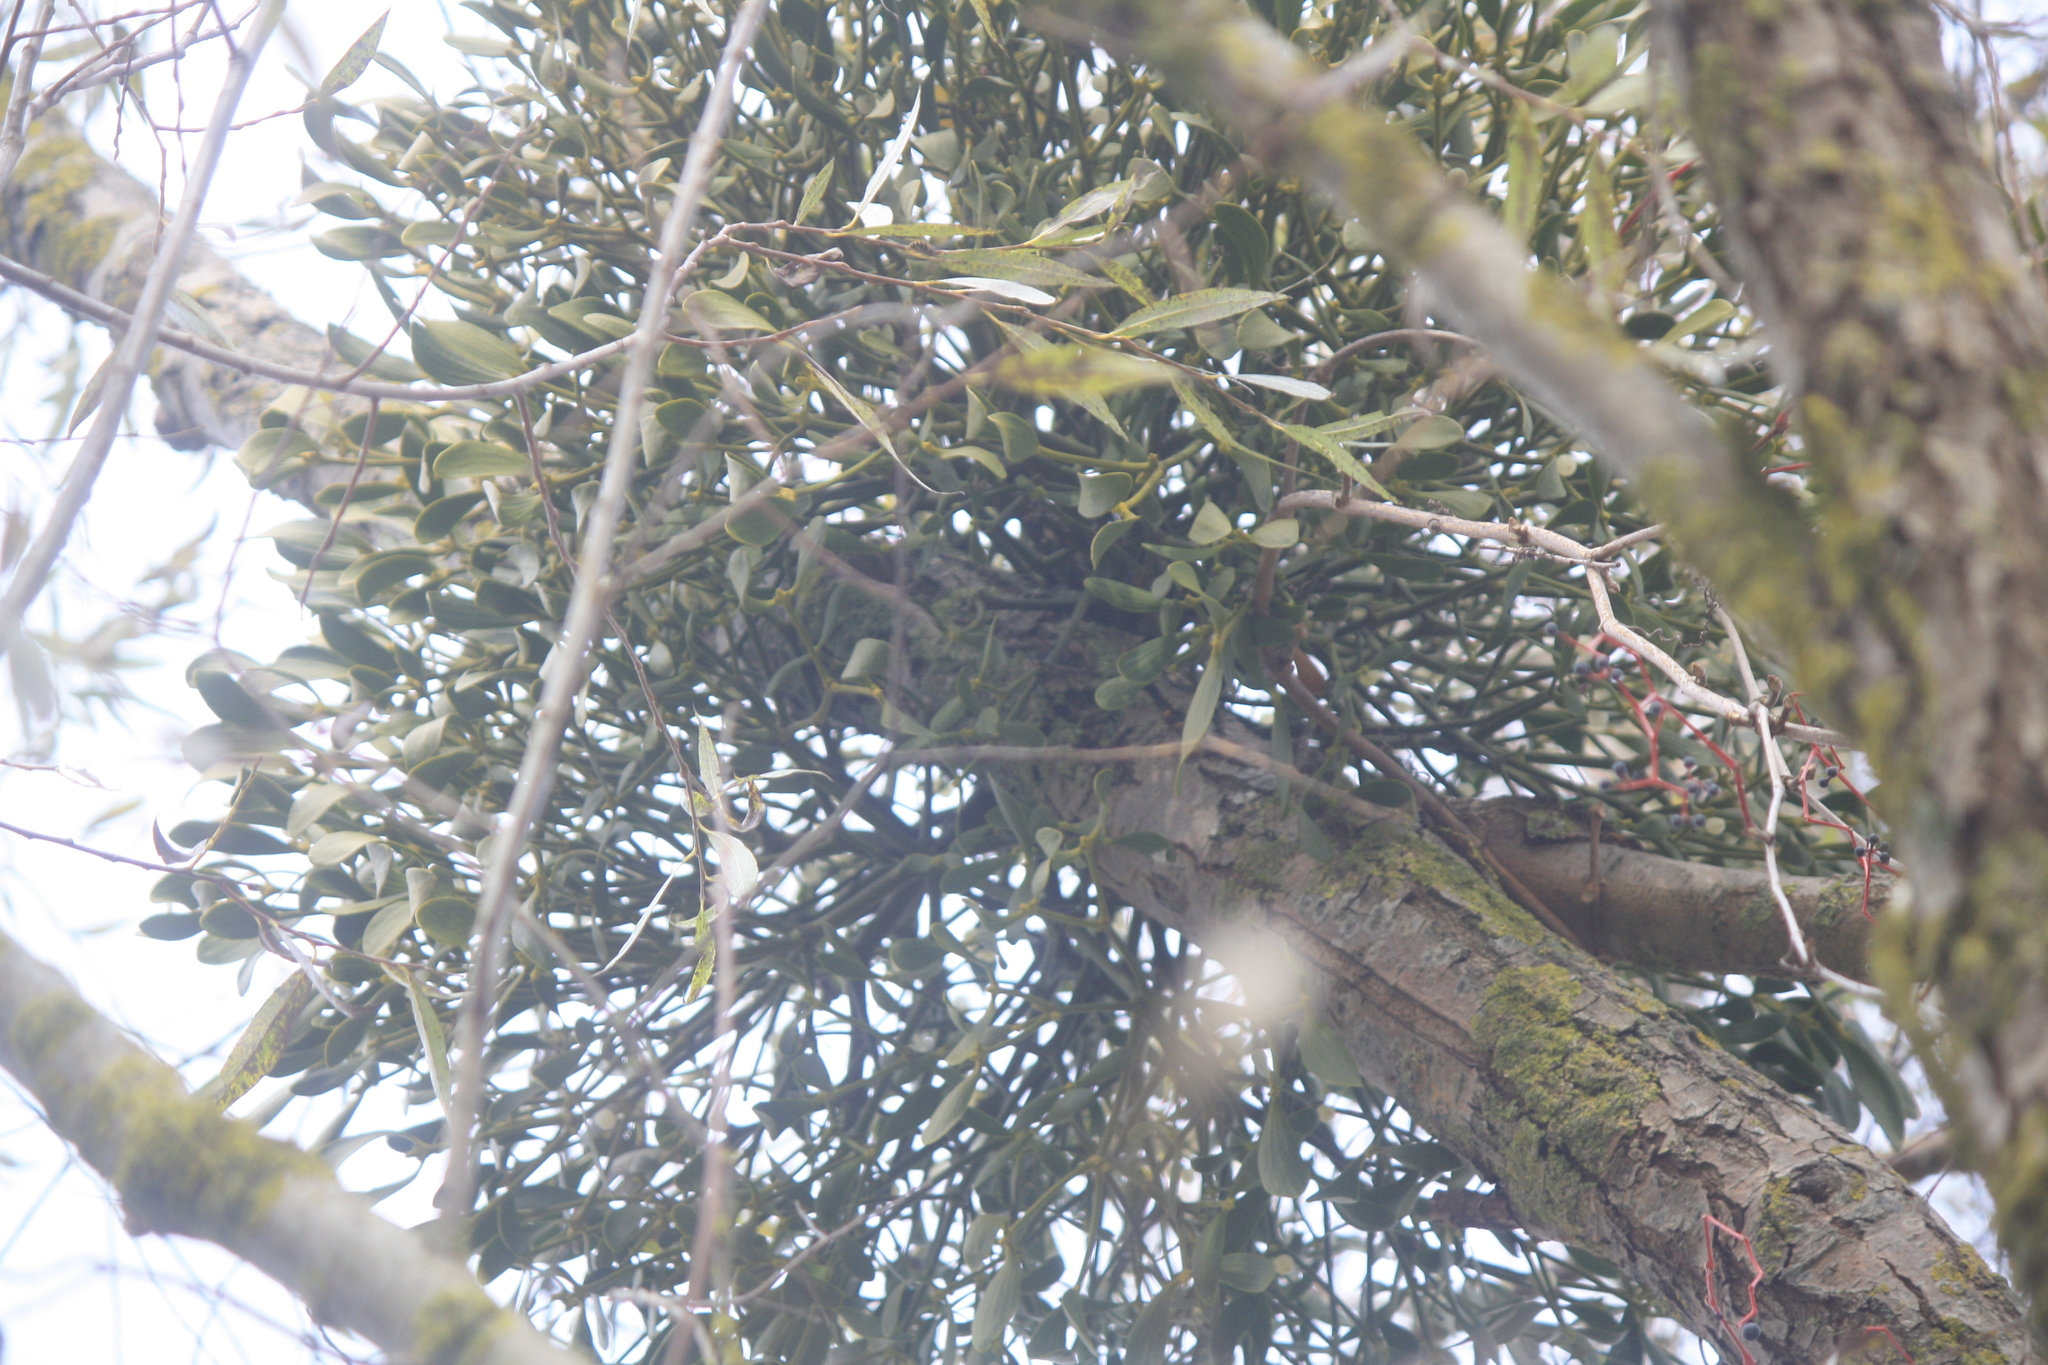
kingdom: Plantae
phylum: Tracheophyta
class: Magnoliopsida
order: Santalales
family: Viscaceae
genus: Viscum
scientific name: Viscum album
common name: Mistletoe
